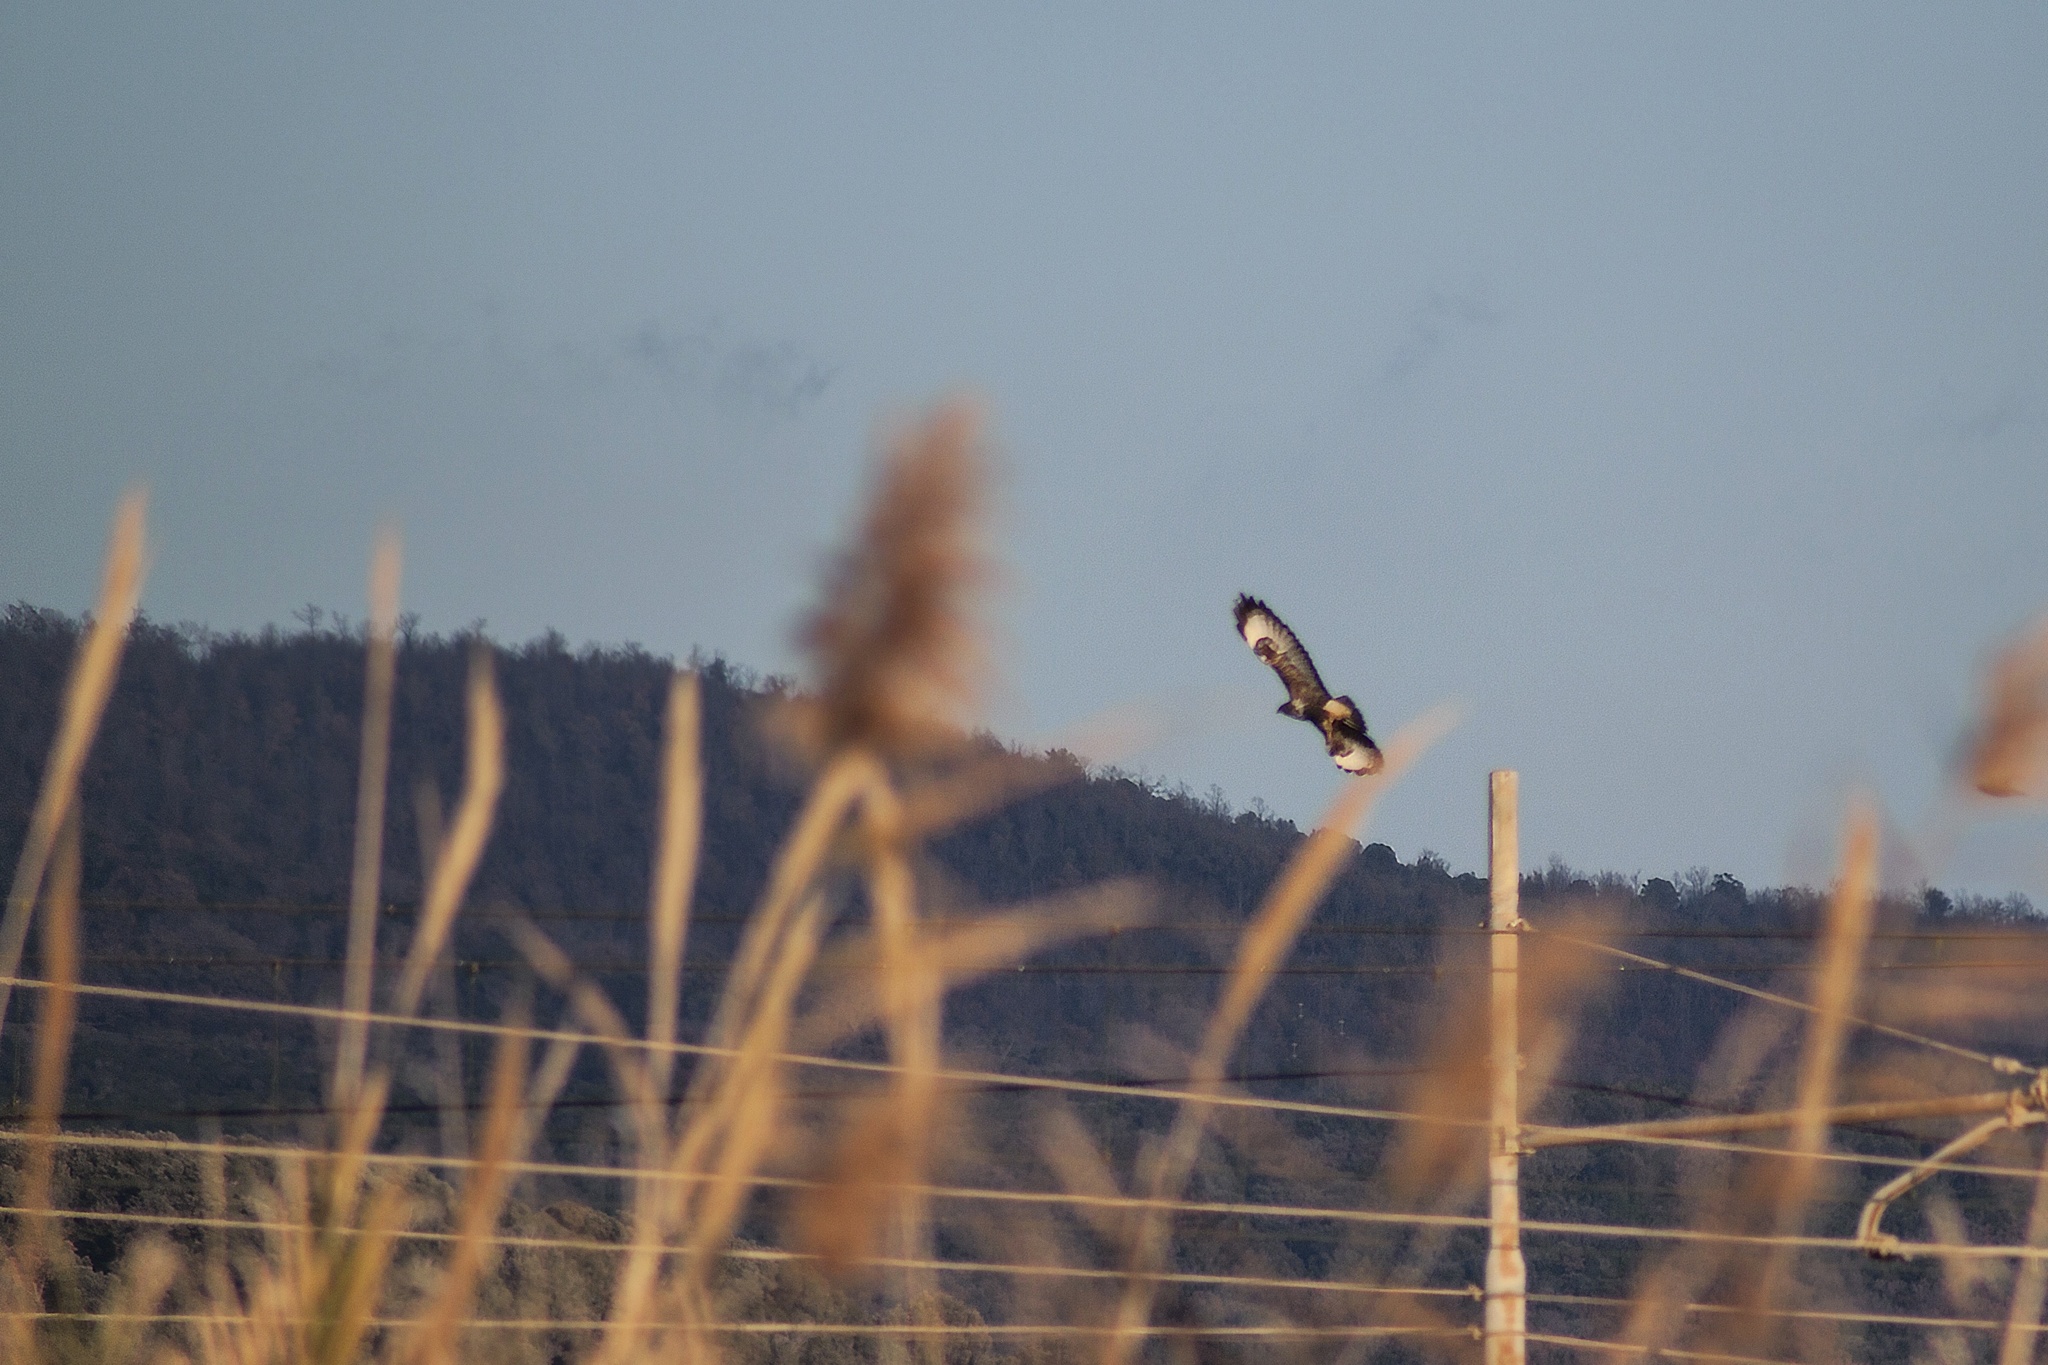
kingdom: Animalia
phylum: Chordata
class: Aves
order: Accipitriformes
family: Accipitridae
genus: Buteo
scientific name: Buteo buteo
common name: Common buzzard
